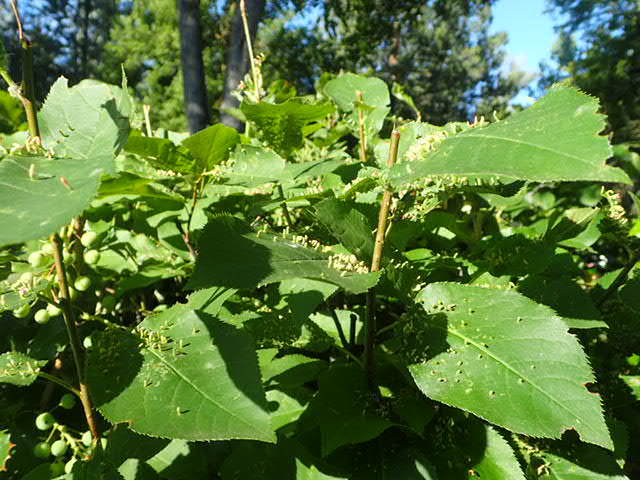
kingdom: Animalia
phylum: Arthropoda
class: Arachnida
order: Trombidiformes
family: Eriophyidae
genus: Eriophyes
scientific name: Eriophyes emarginatae
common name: Plum leaf gall mite
